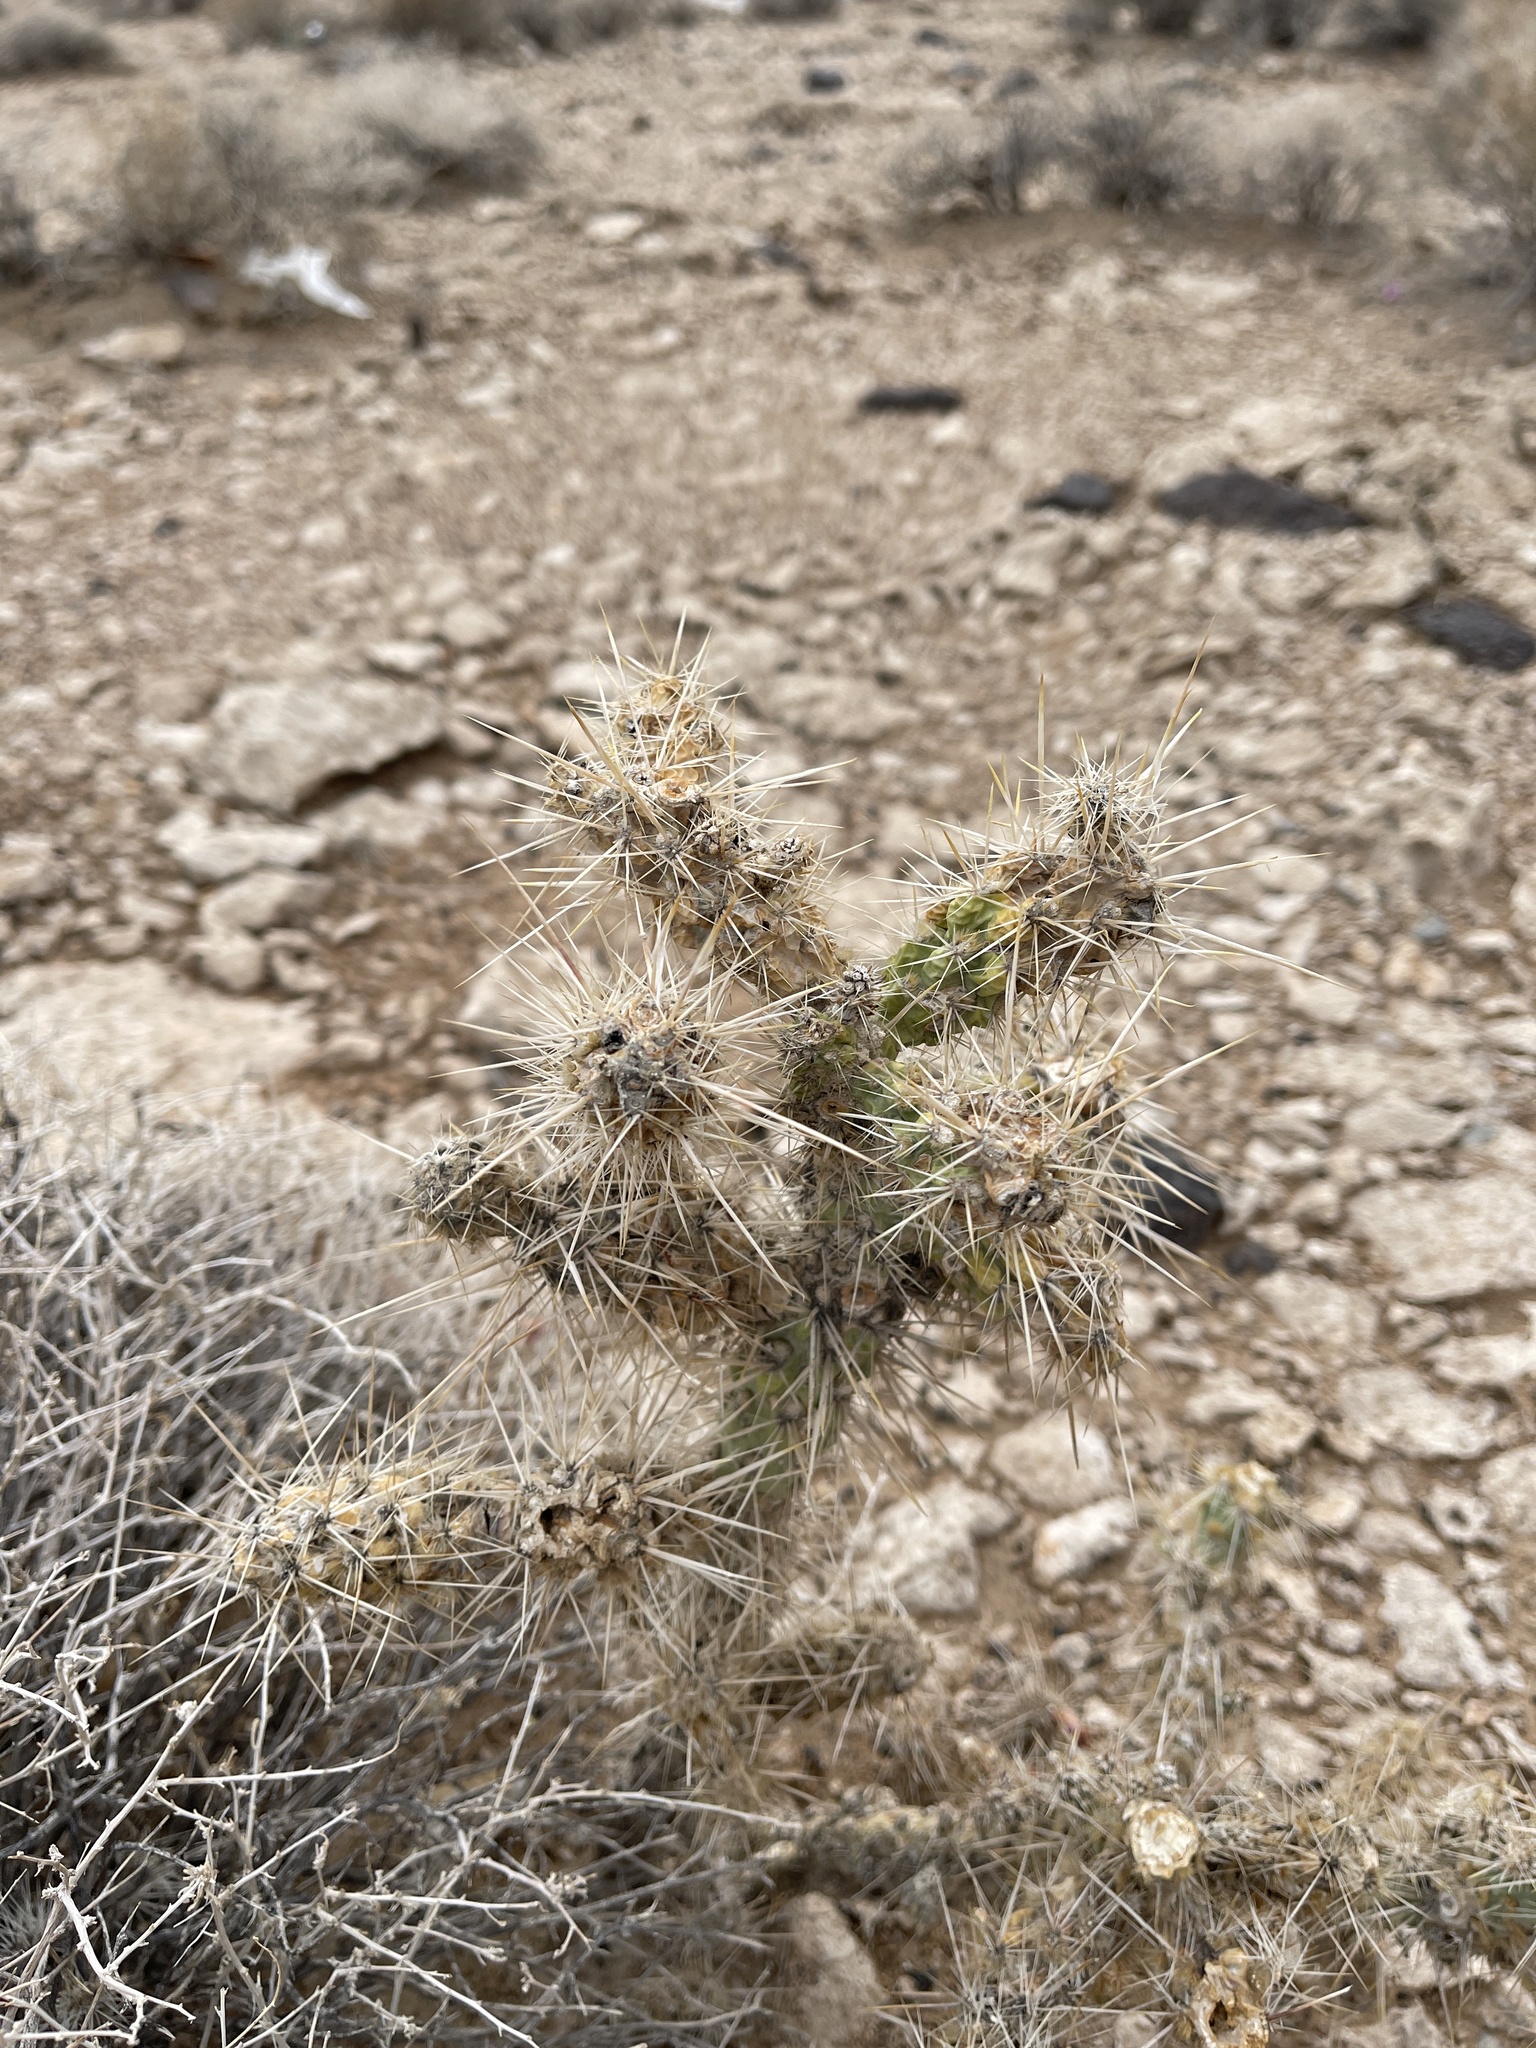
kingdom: Plantae
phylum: Tracheophyta
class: Magnoliopsida
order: Caryophyllales
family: Cactaceae
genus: Cylindropuntia
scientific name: Cylindropuntia echinocarpa
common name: Ground cholla
